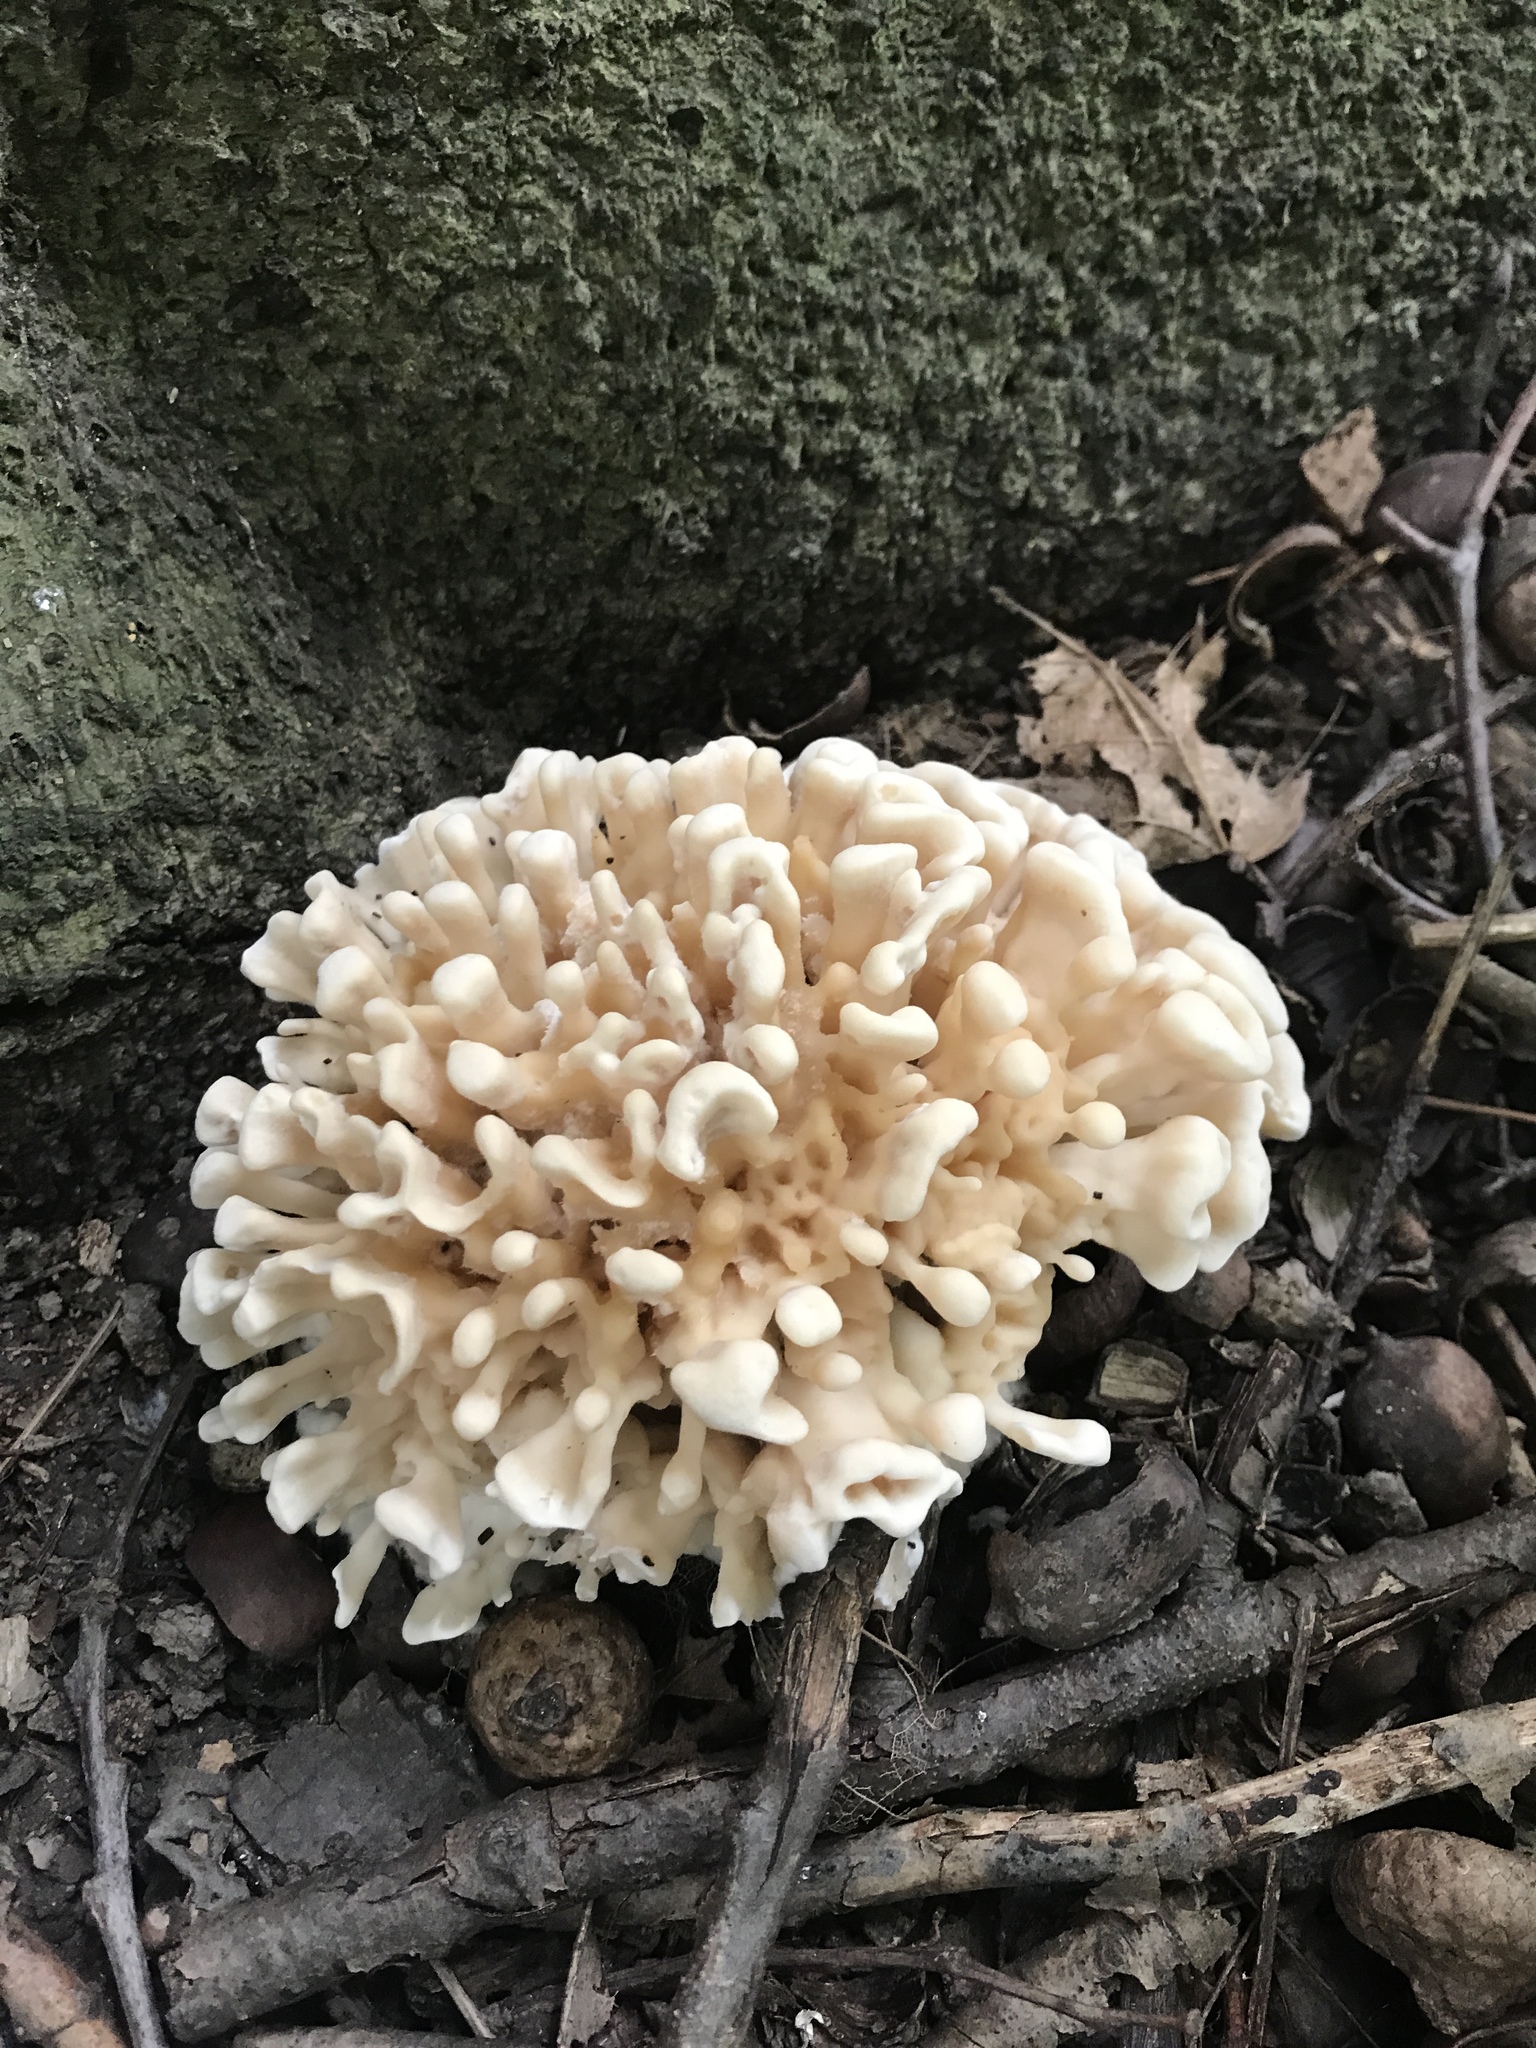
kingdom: Fungi
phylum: Basidiomycota
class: Agaricomycetes
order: Polyporales
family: Sparassidaceae
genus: Sparassis
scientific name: Sparassis spathulata
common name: Eastern cauliflower mushroom
